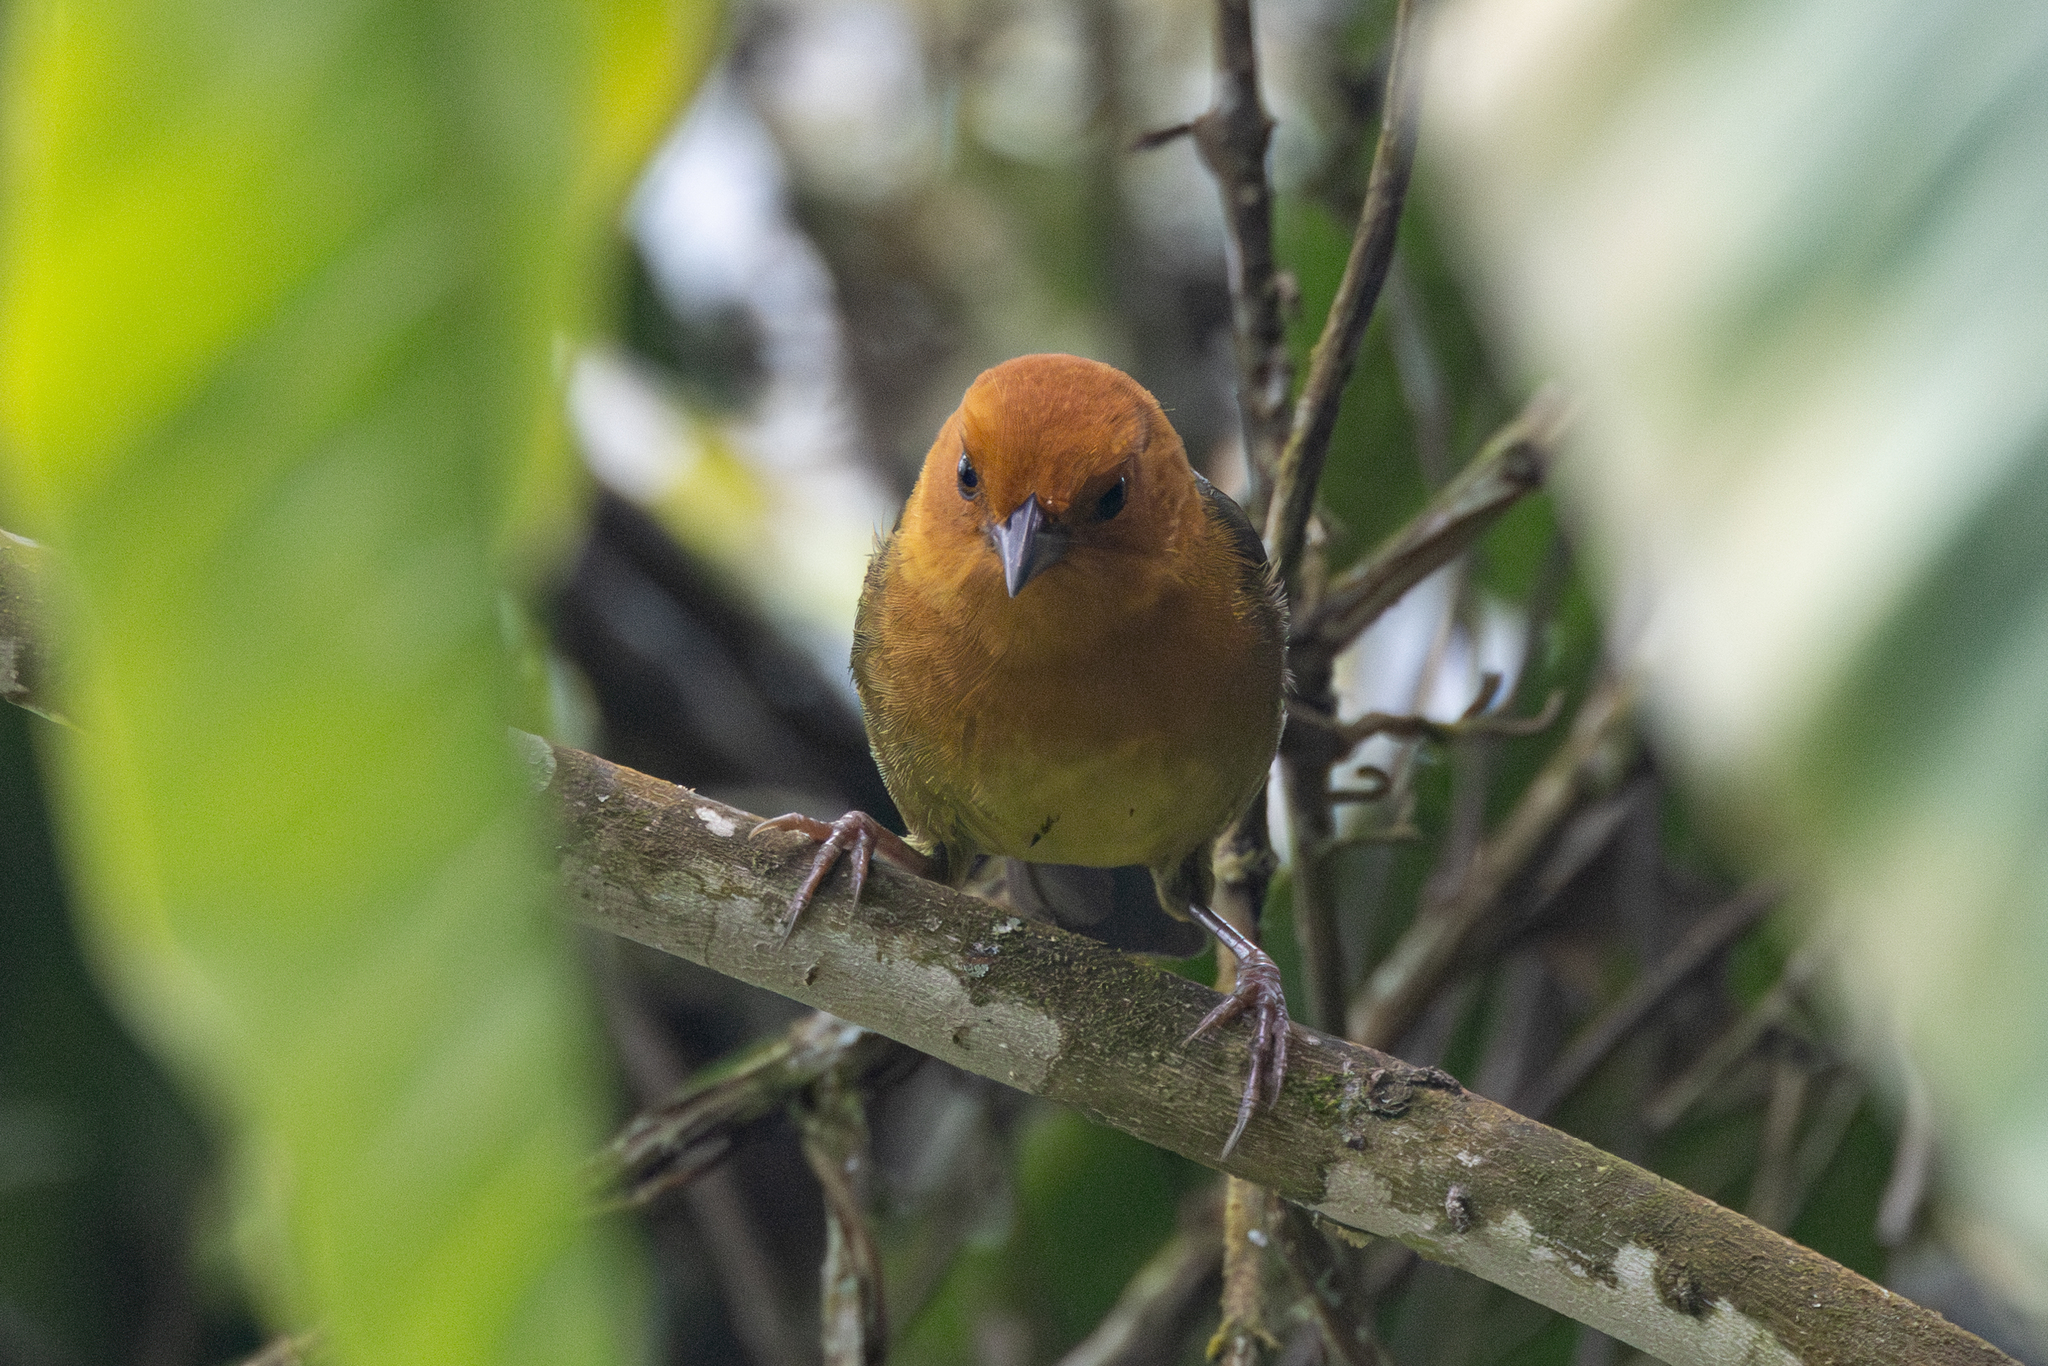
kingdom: Animalia
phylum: Chordata
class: Aves
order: Passeriformes
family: Passerellidae
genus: Atlapetes
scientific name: Atlapetes semirufus
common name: Ochre-breasted brushfinch
